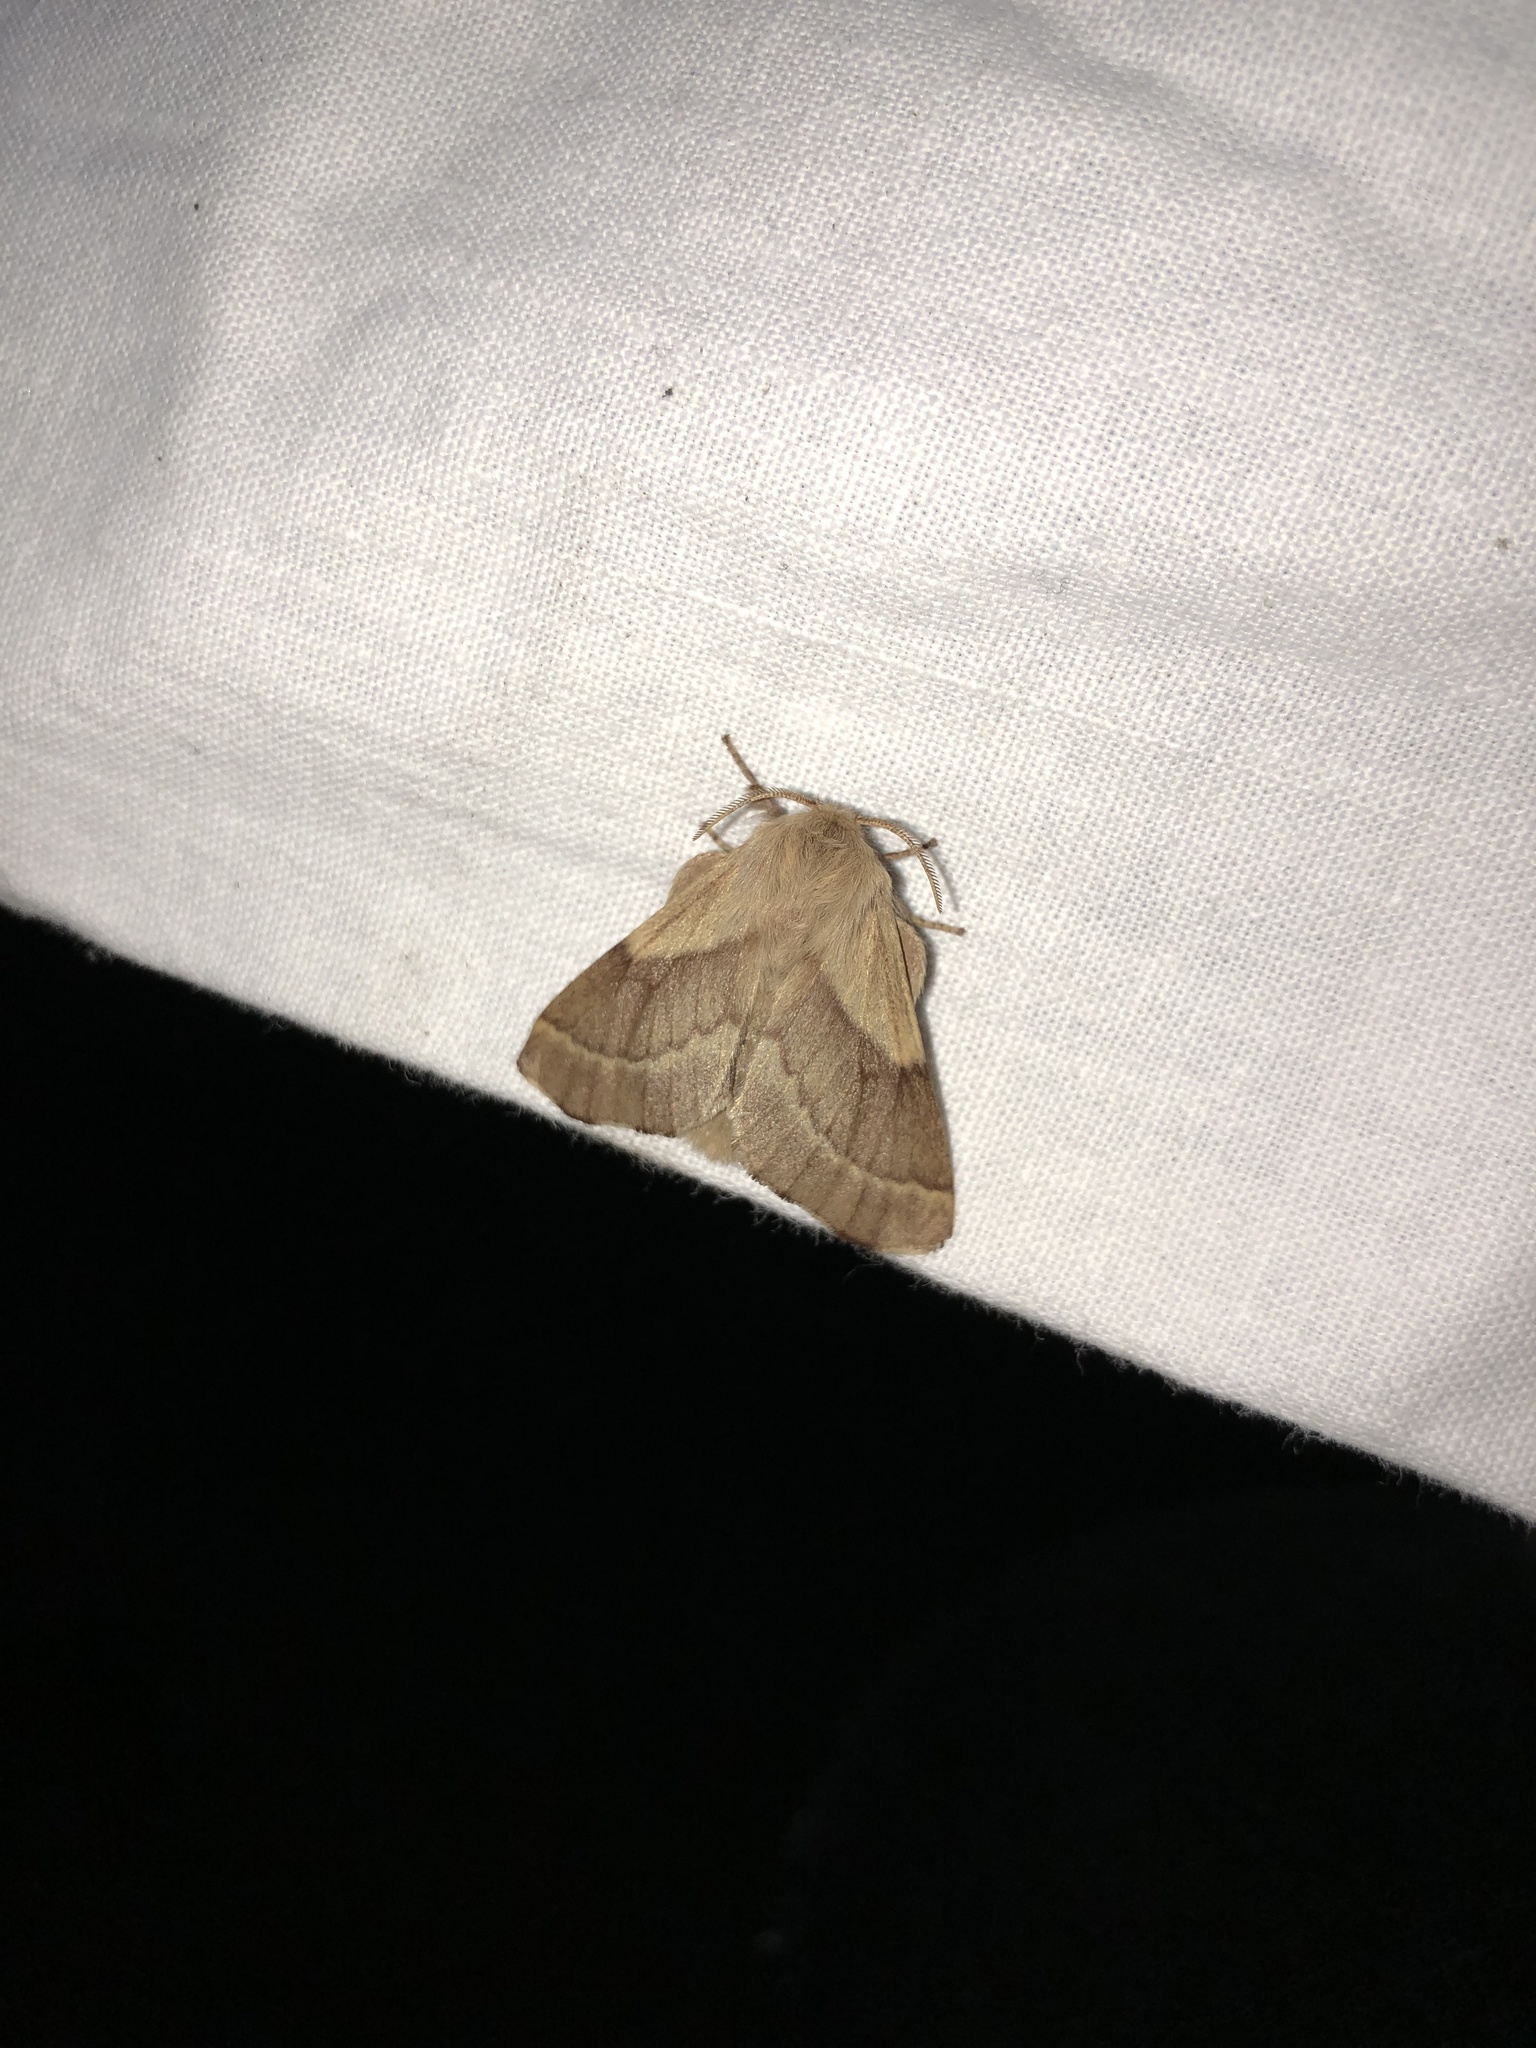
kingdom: Animalia
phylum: Arthropoda
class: Insecta
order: Lepidoptera
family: Lasiocampidae
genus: Malacosoma
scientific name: Malacosoma disstria
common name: Forest tent caterpillar
